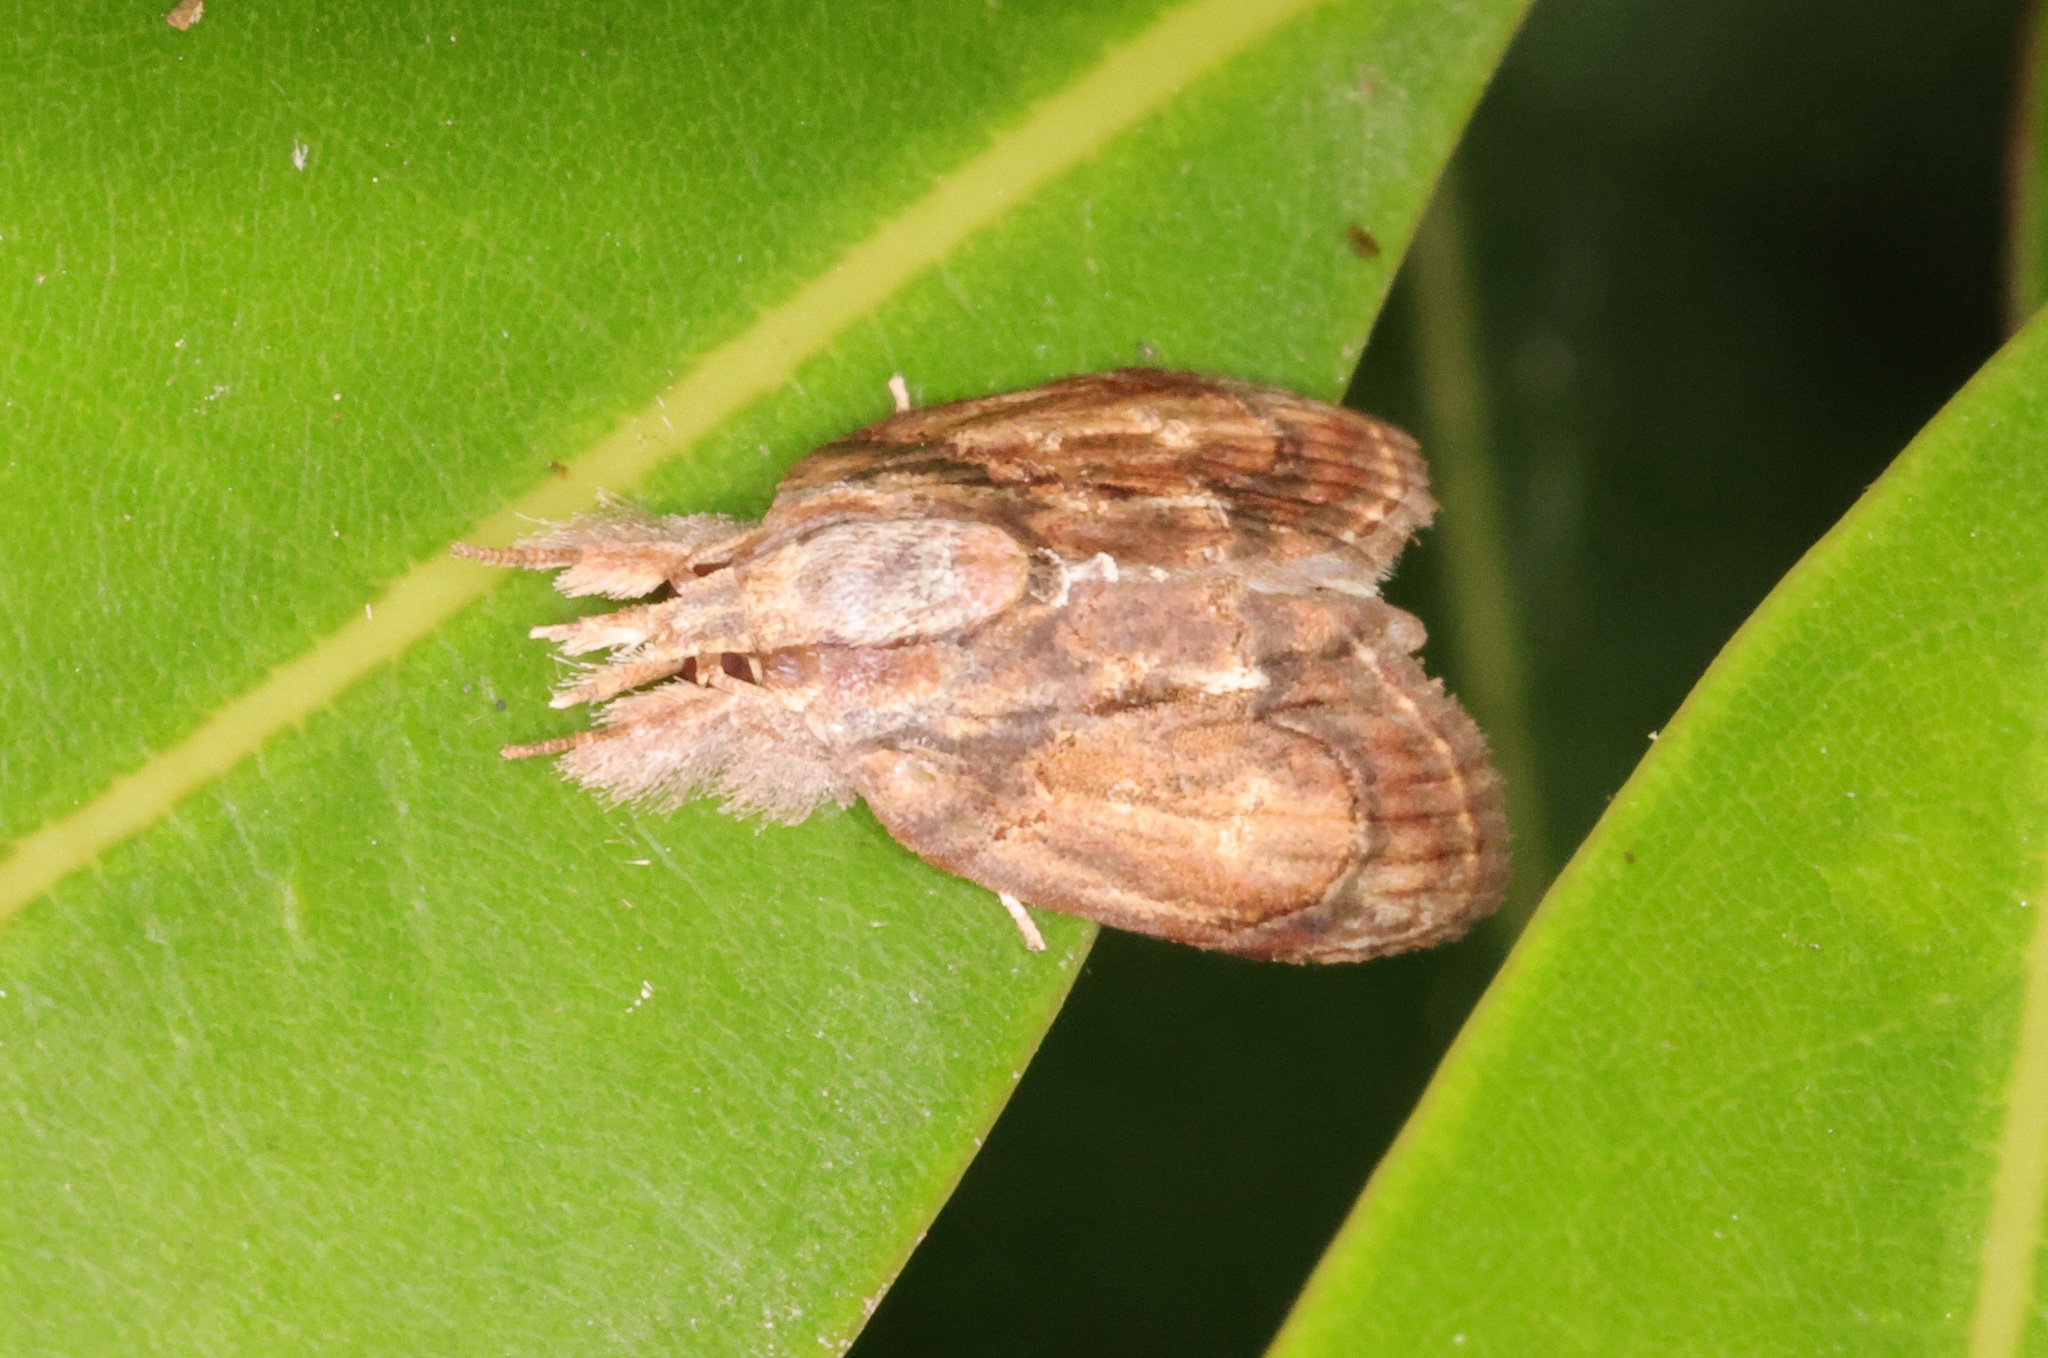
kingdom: Animalia
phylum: Arthropoda
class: Insecta
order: Lepidoptera
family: Nolidae
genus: Selepa
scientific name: Selepa discigera
